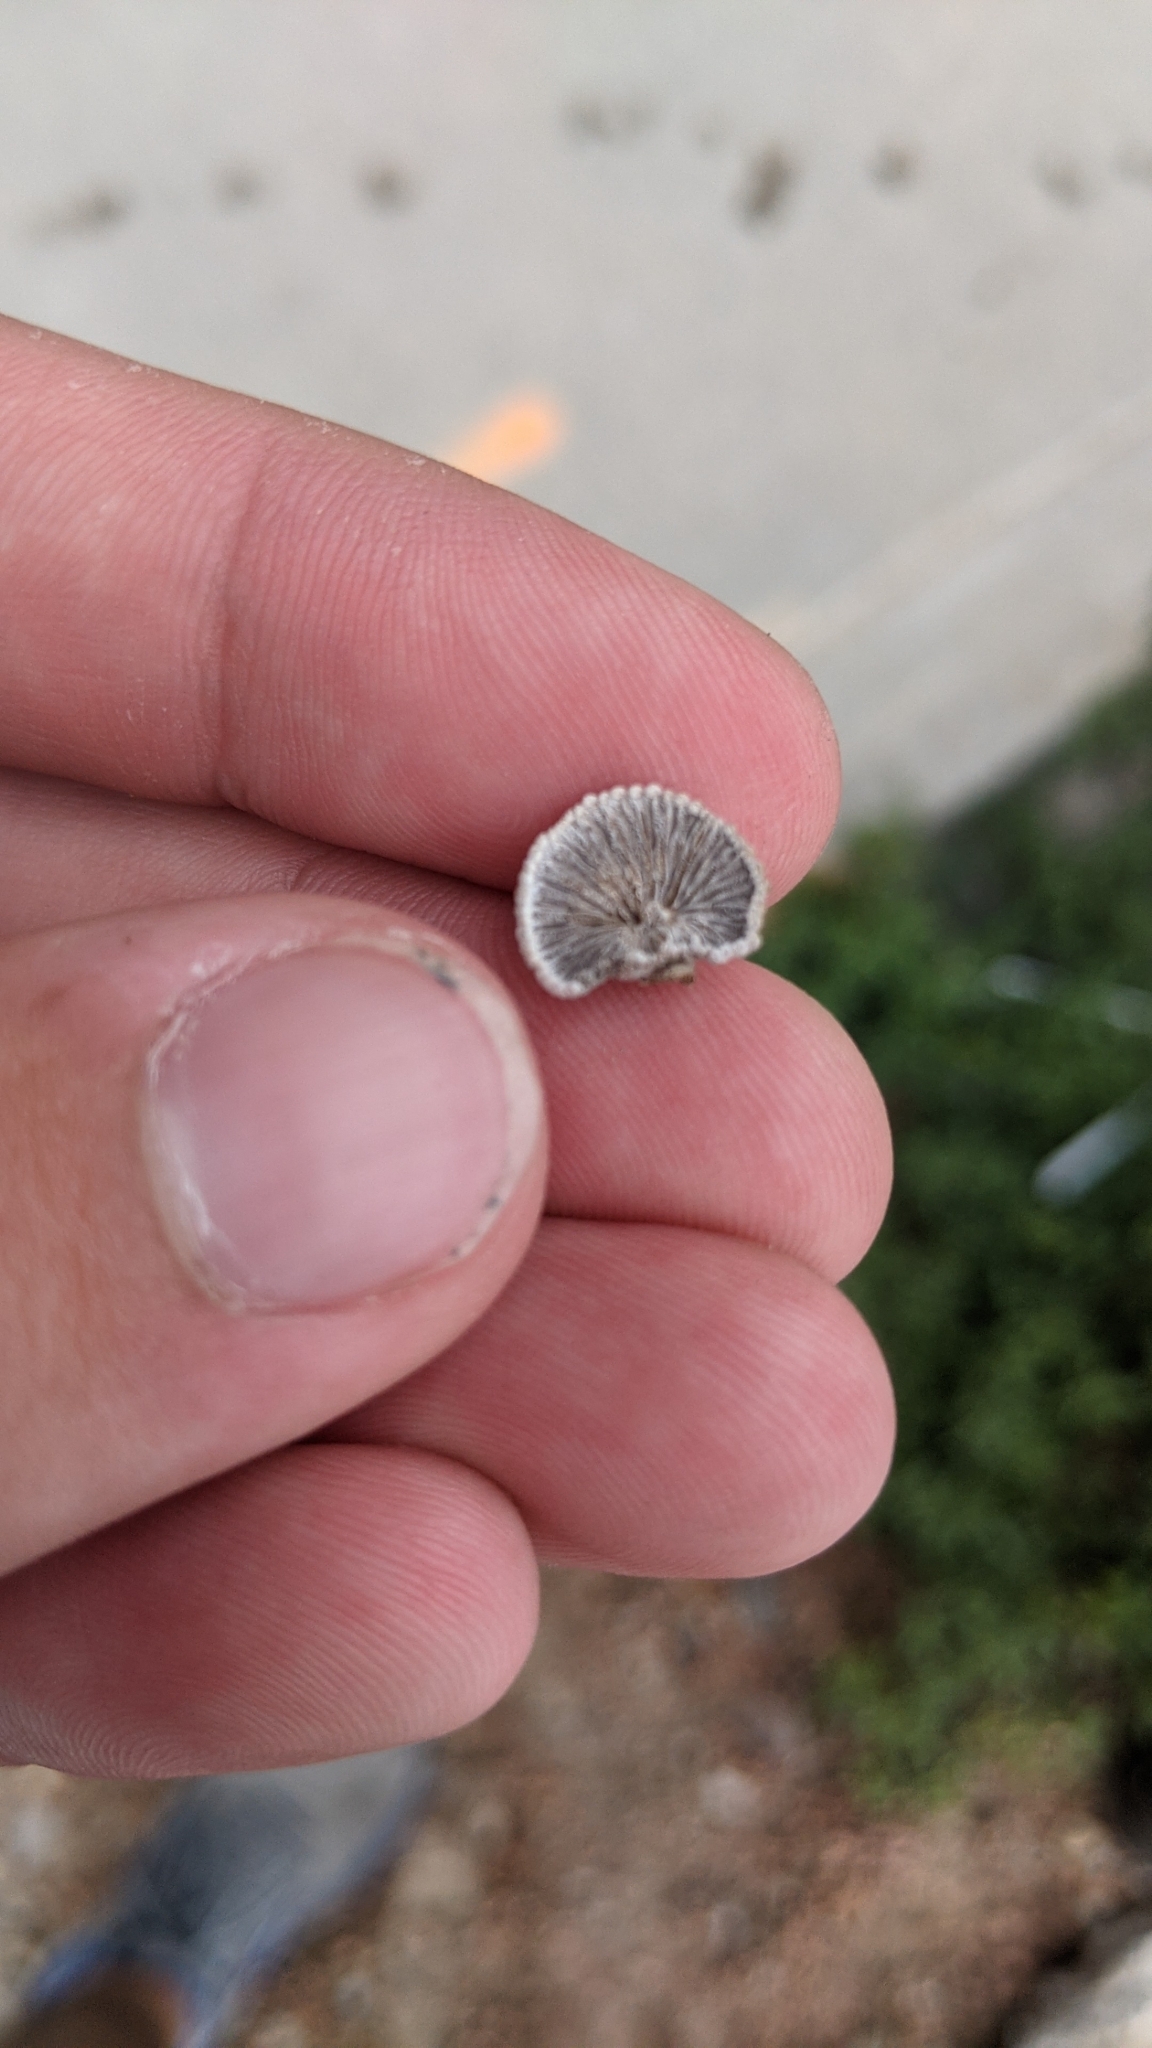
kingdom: Fungi
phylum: Basidiomycota
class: Agaricomycetes
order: Agaricales
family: Schizophyllaceae
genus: Schizophyllum
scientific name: Schizophyllum commune
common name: Common porecrust
